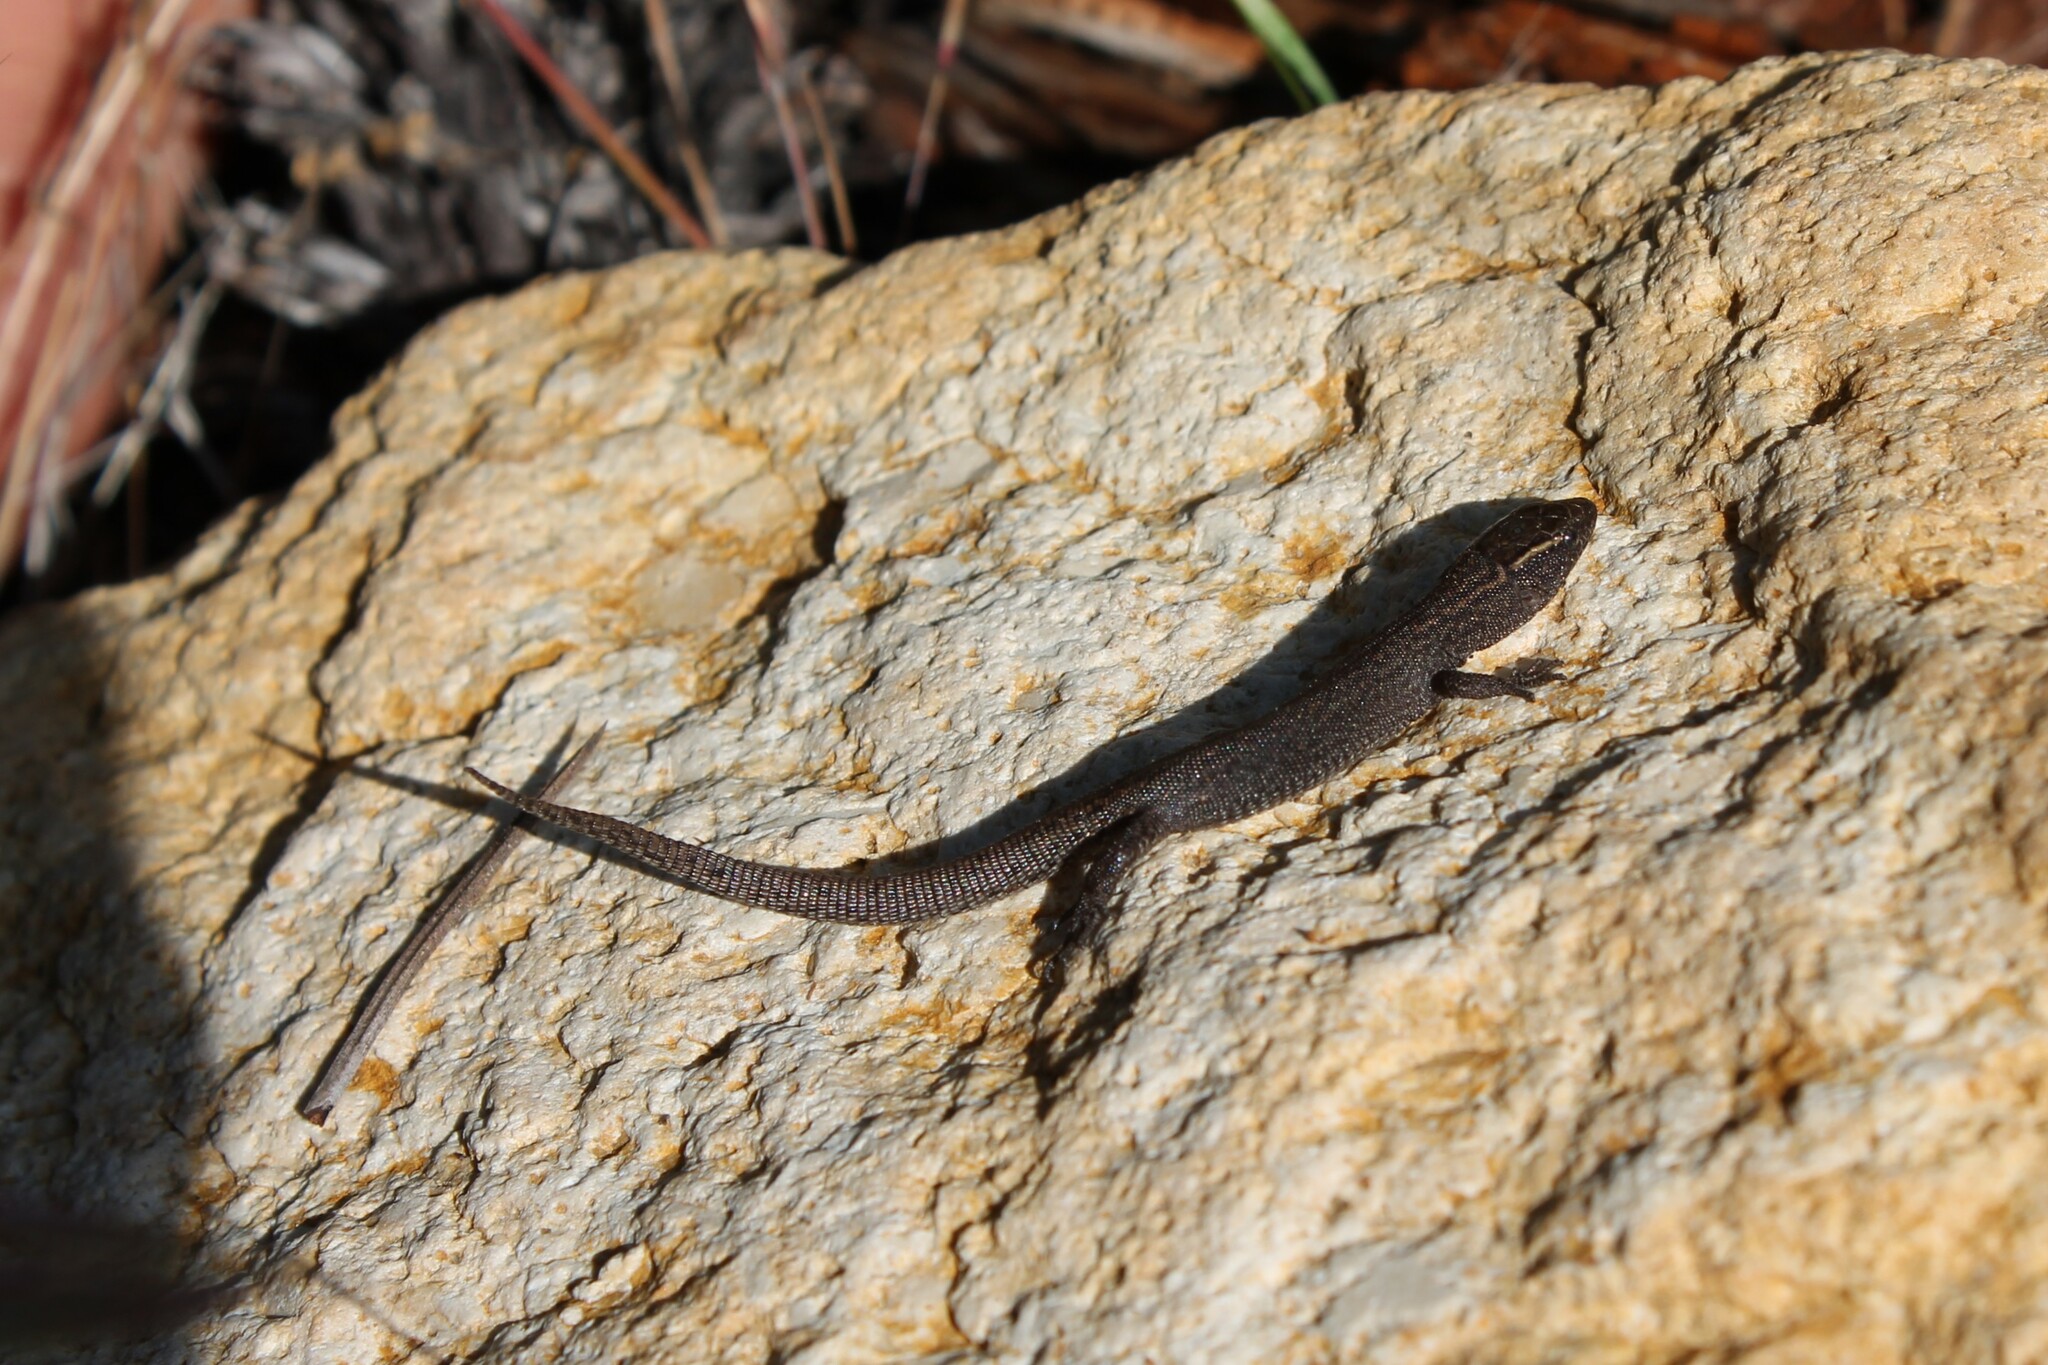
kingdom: Animalia
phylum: Chordata
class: Squamata
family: Xantusiidae
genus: Xantusia
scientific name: Xantusia vigilis
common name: Desert night lizard
